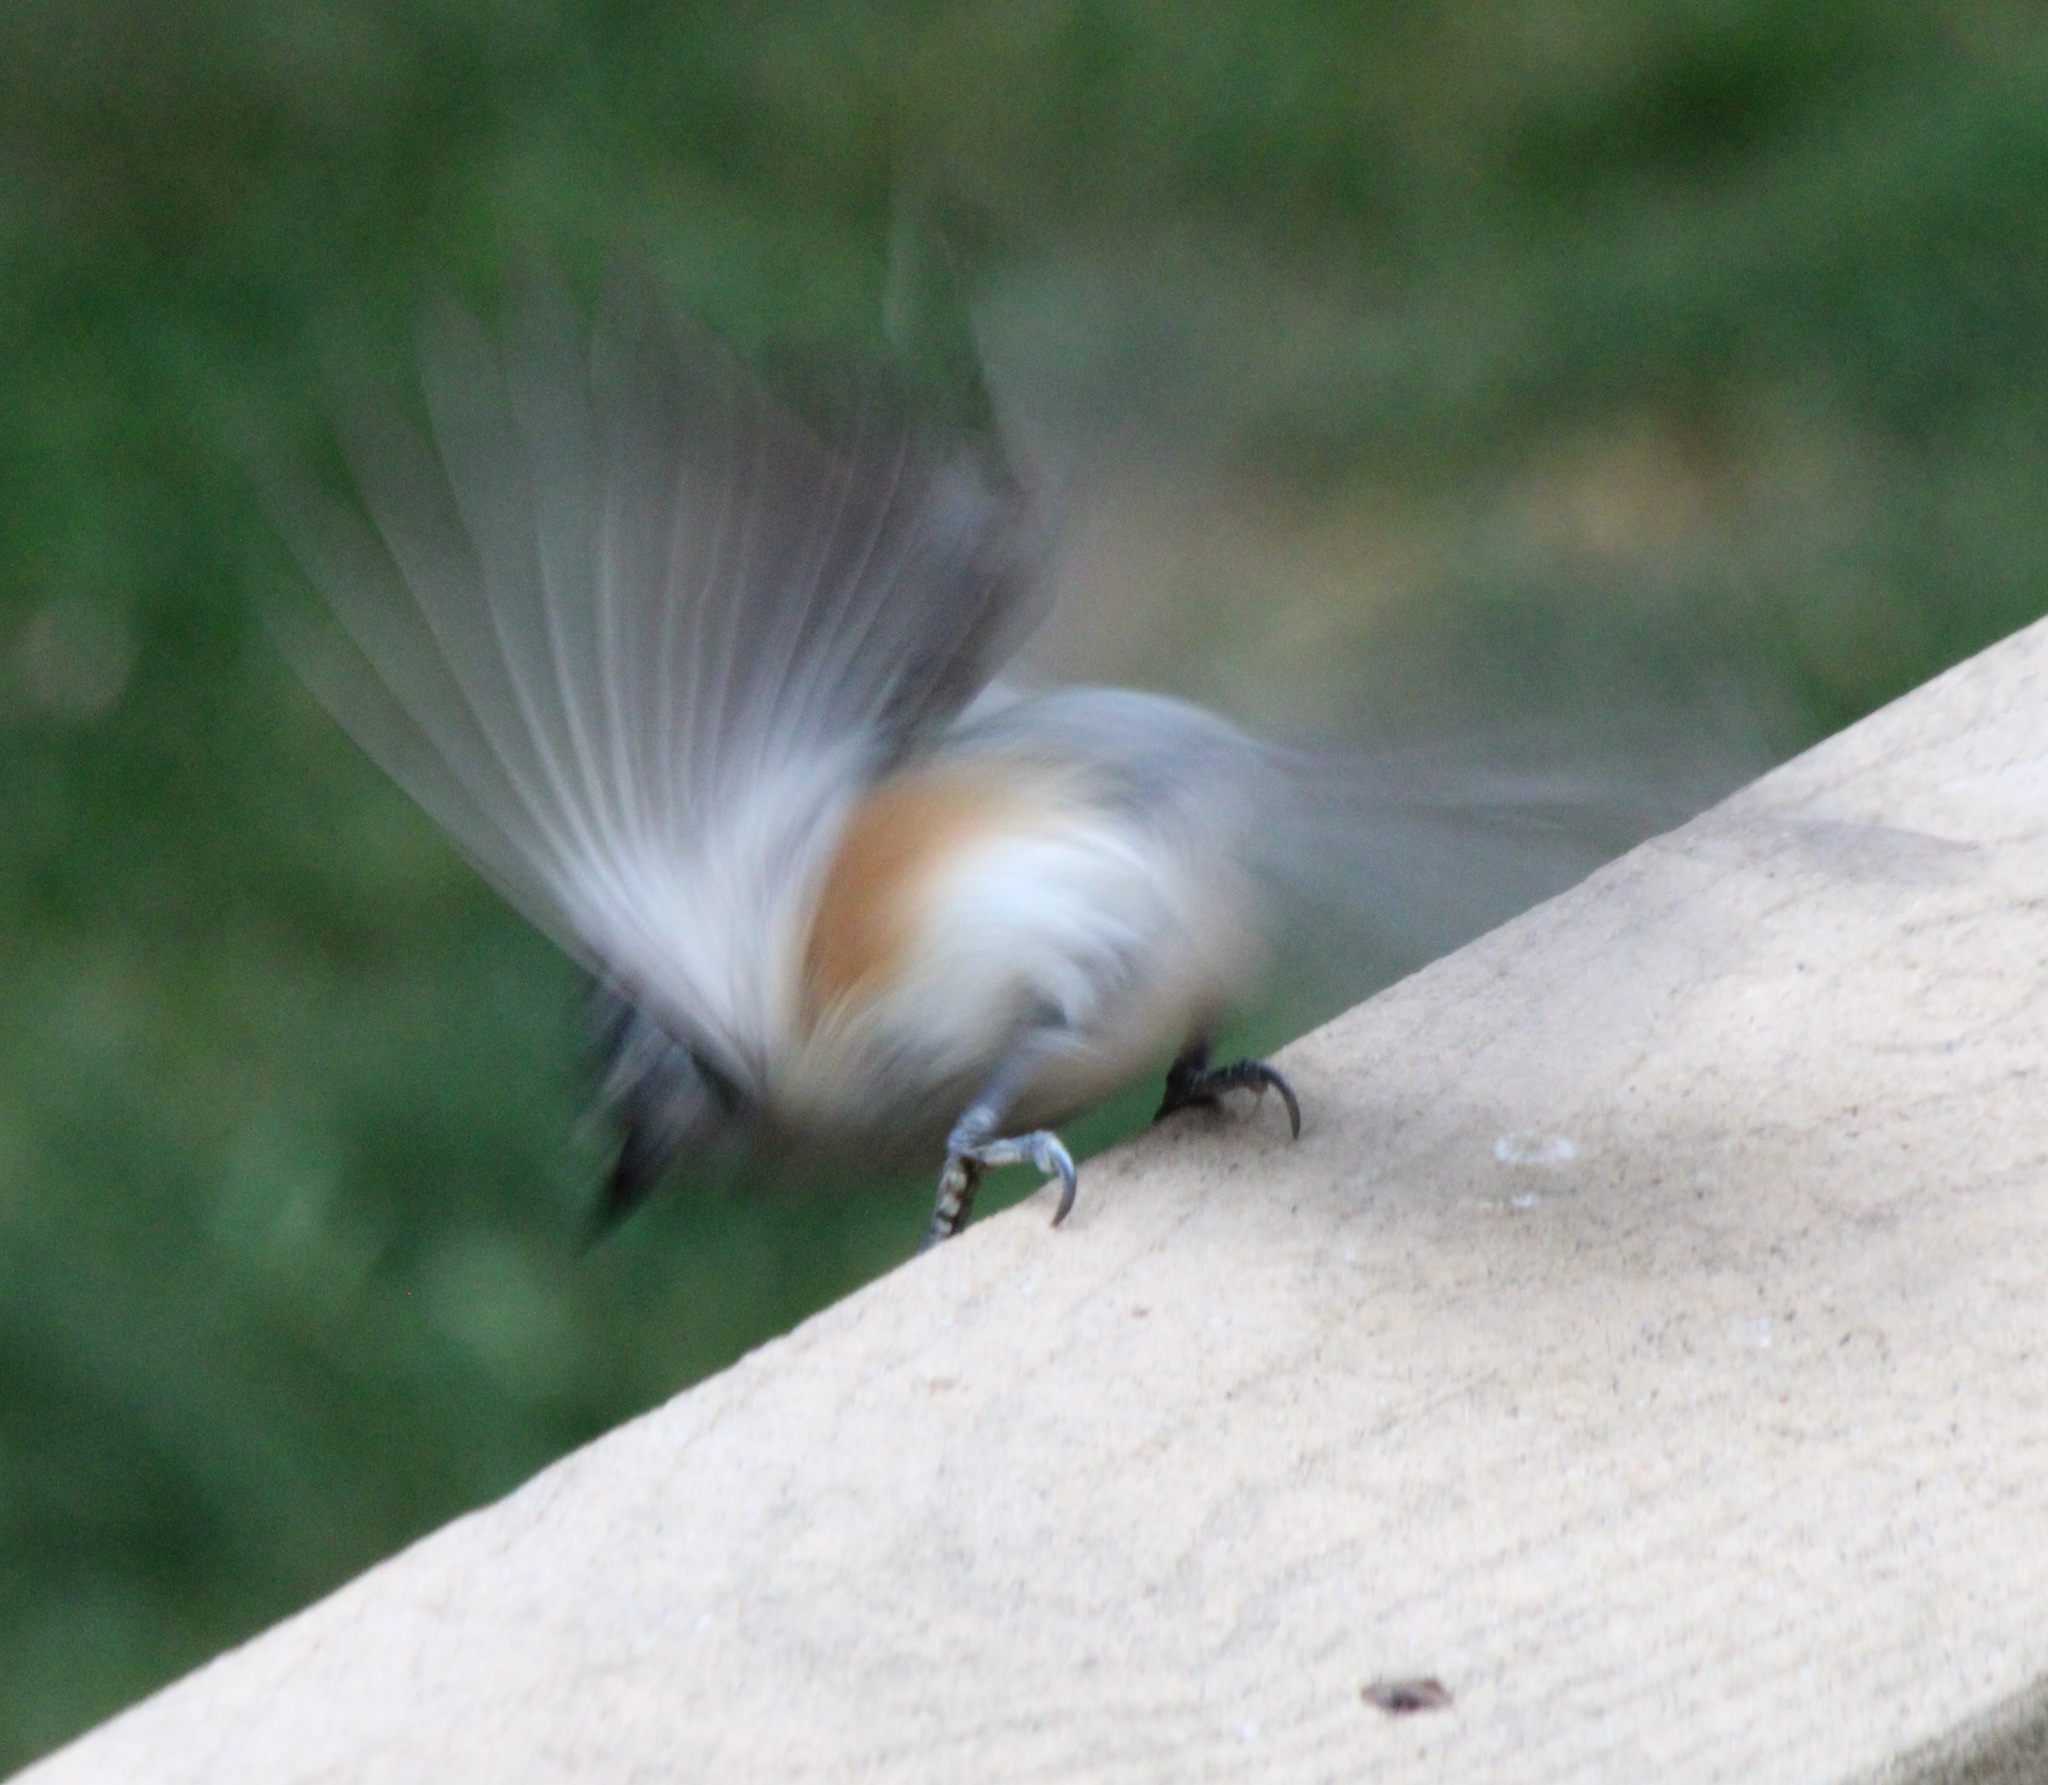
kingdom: Animalia
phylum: Chordata
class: Aves
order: Passeriformes
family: Paridae
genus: Baeolophus
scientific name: Baeolophus bicolor
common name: Tufted titmouse
